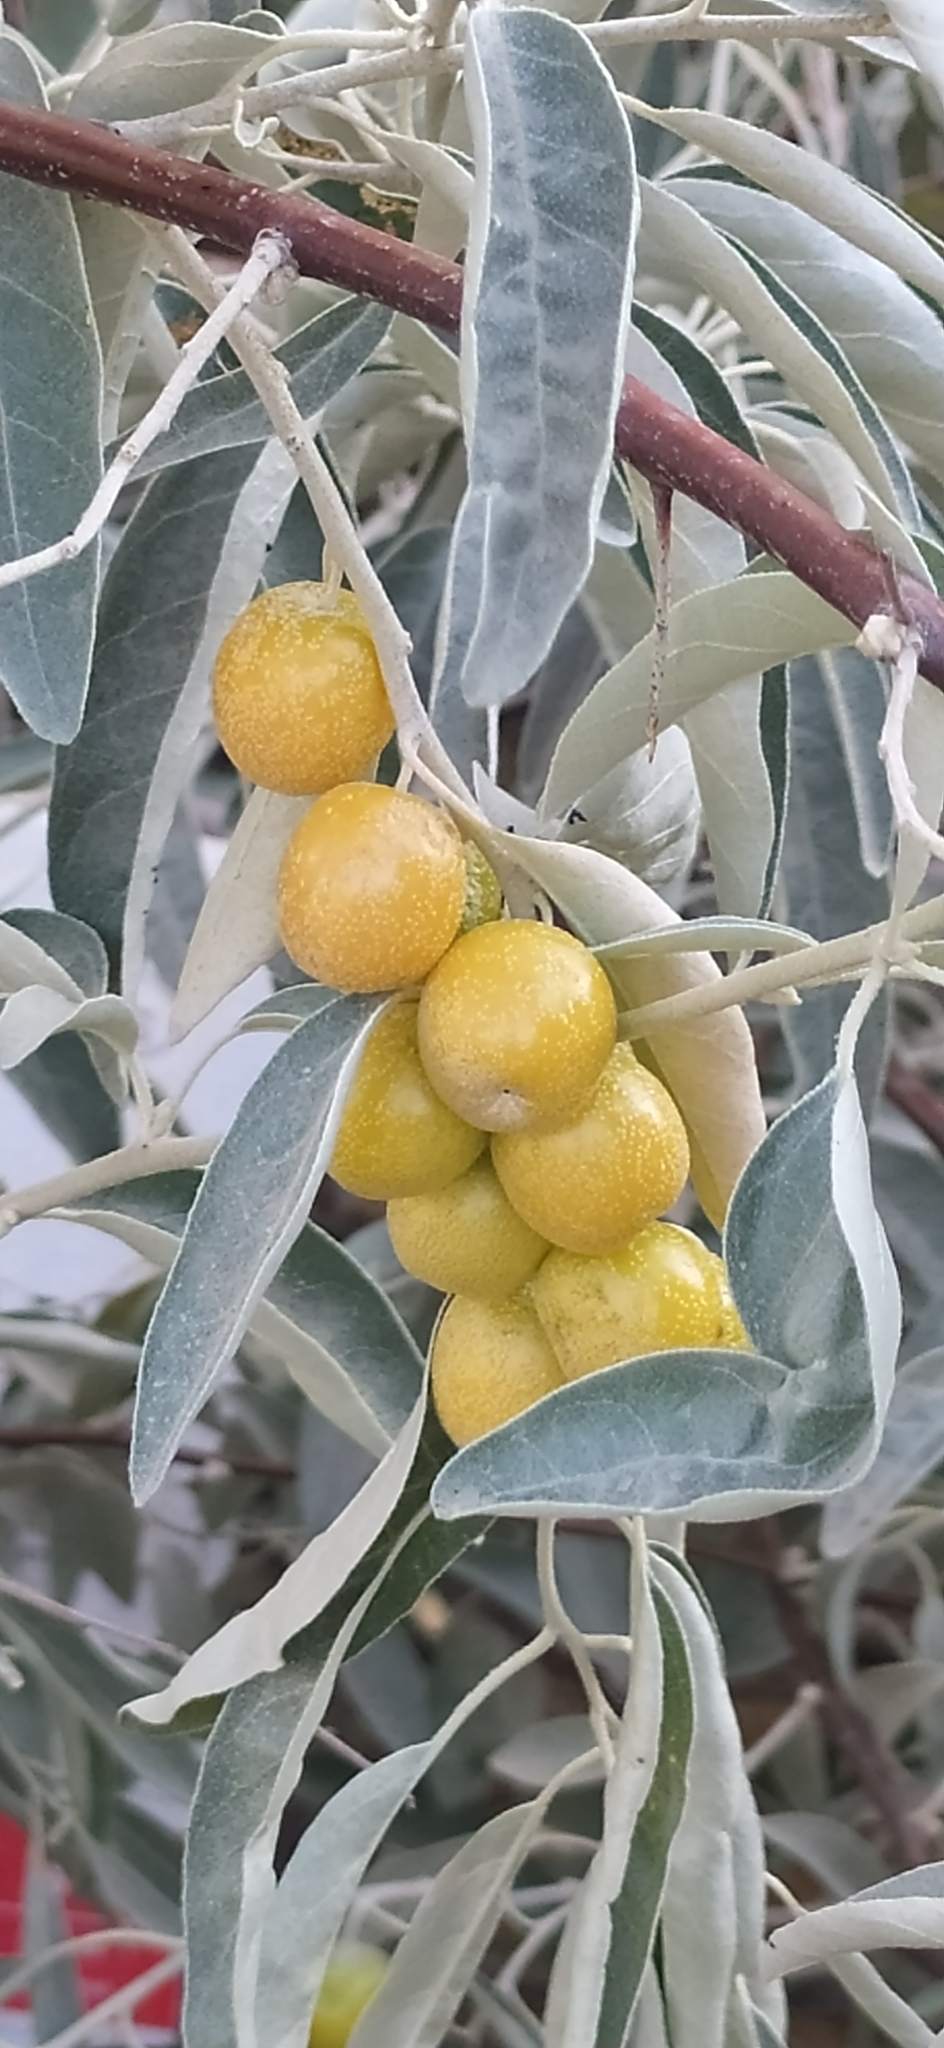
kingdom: Plantae
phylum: Tracheophyta
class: Magnoliopsida
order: Rosales
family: Elaeagnaceae
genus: Elaeagnus
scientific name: Elaeagnus angustifolia
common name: Russian olive
